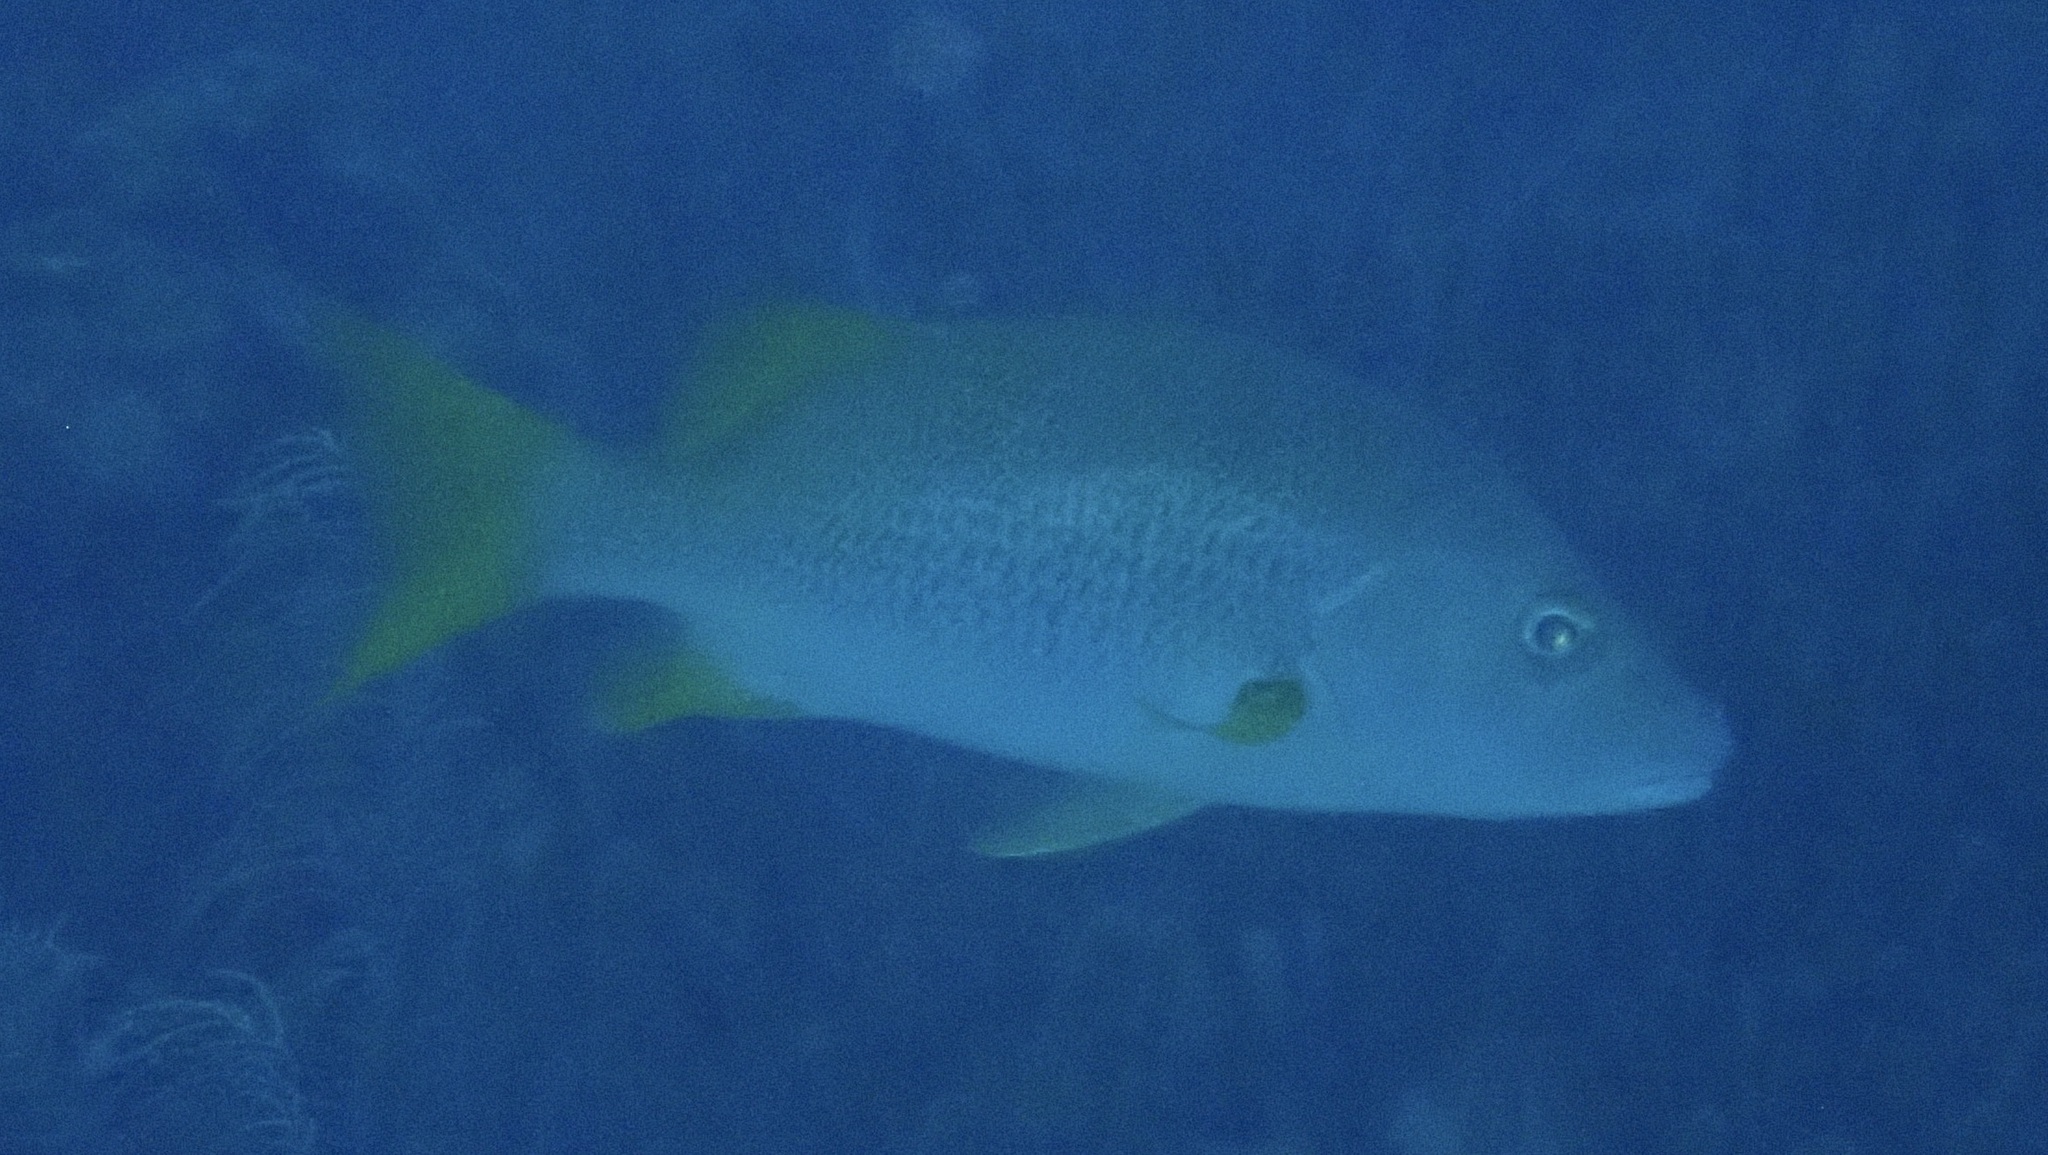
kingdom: Animalia
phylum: Chordata
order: Perciformes
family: Lutjanidae
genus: Lutjanus
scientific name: Lutjanus apodus
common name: Schoolmaster
